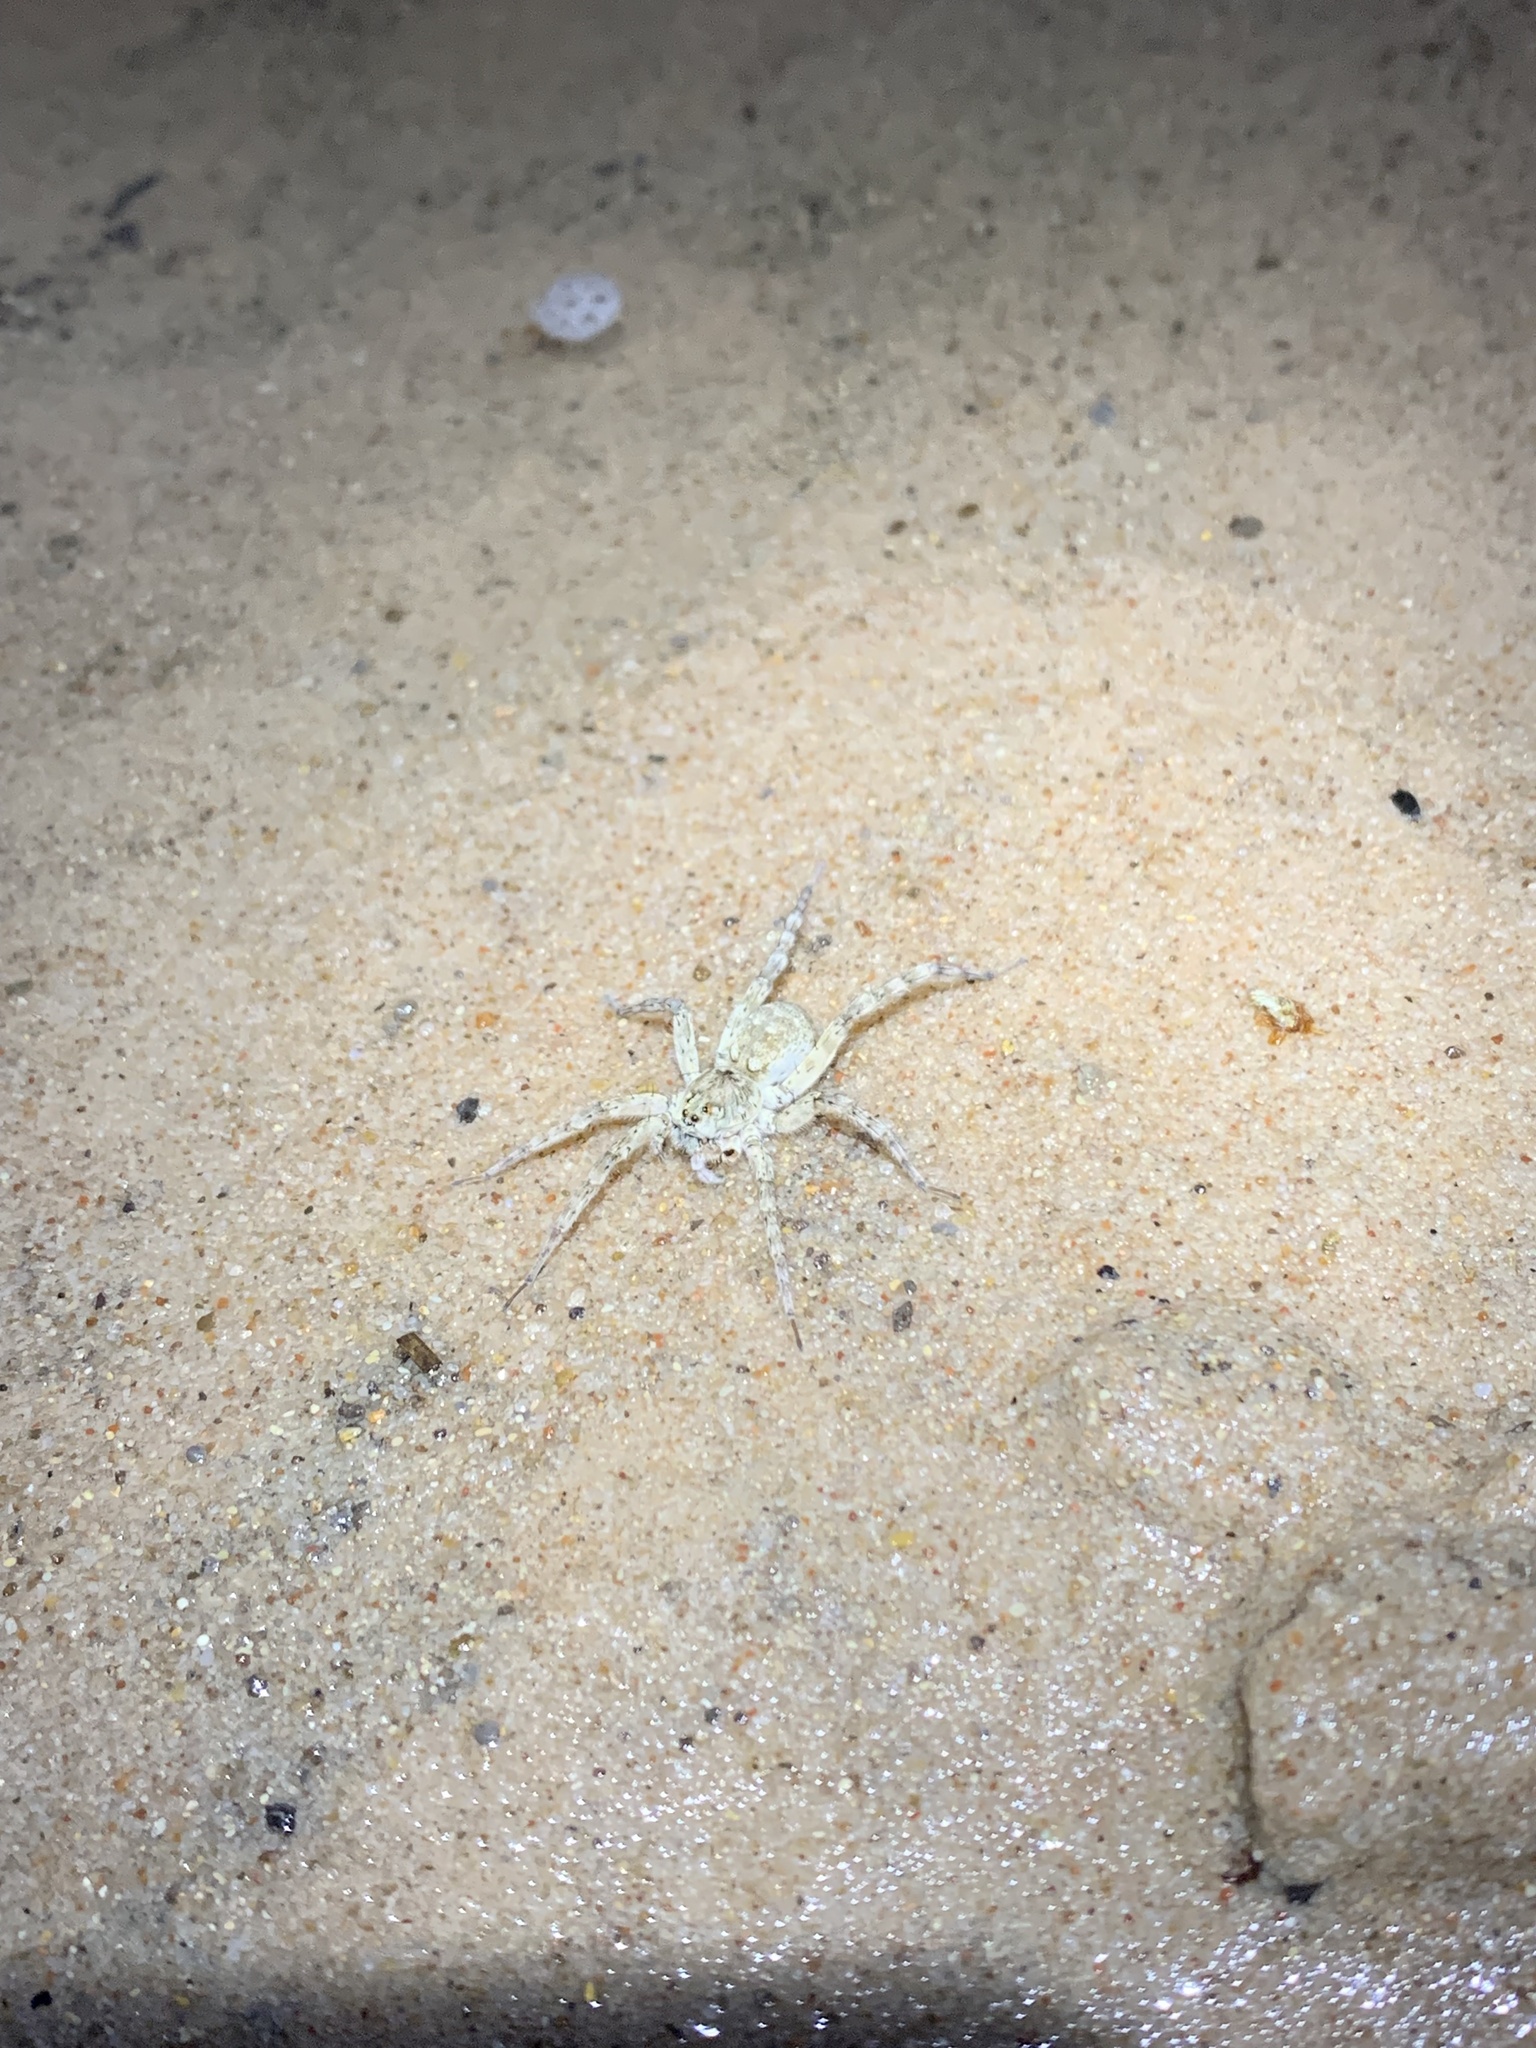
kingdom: Animalia
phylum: Arthropoda
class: Arachnida
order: Araneae
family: Lycosidae
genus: Arctosa
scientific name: Arctosa littoralis
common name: Wolf spiders
